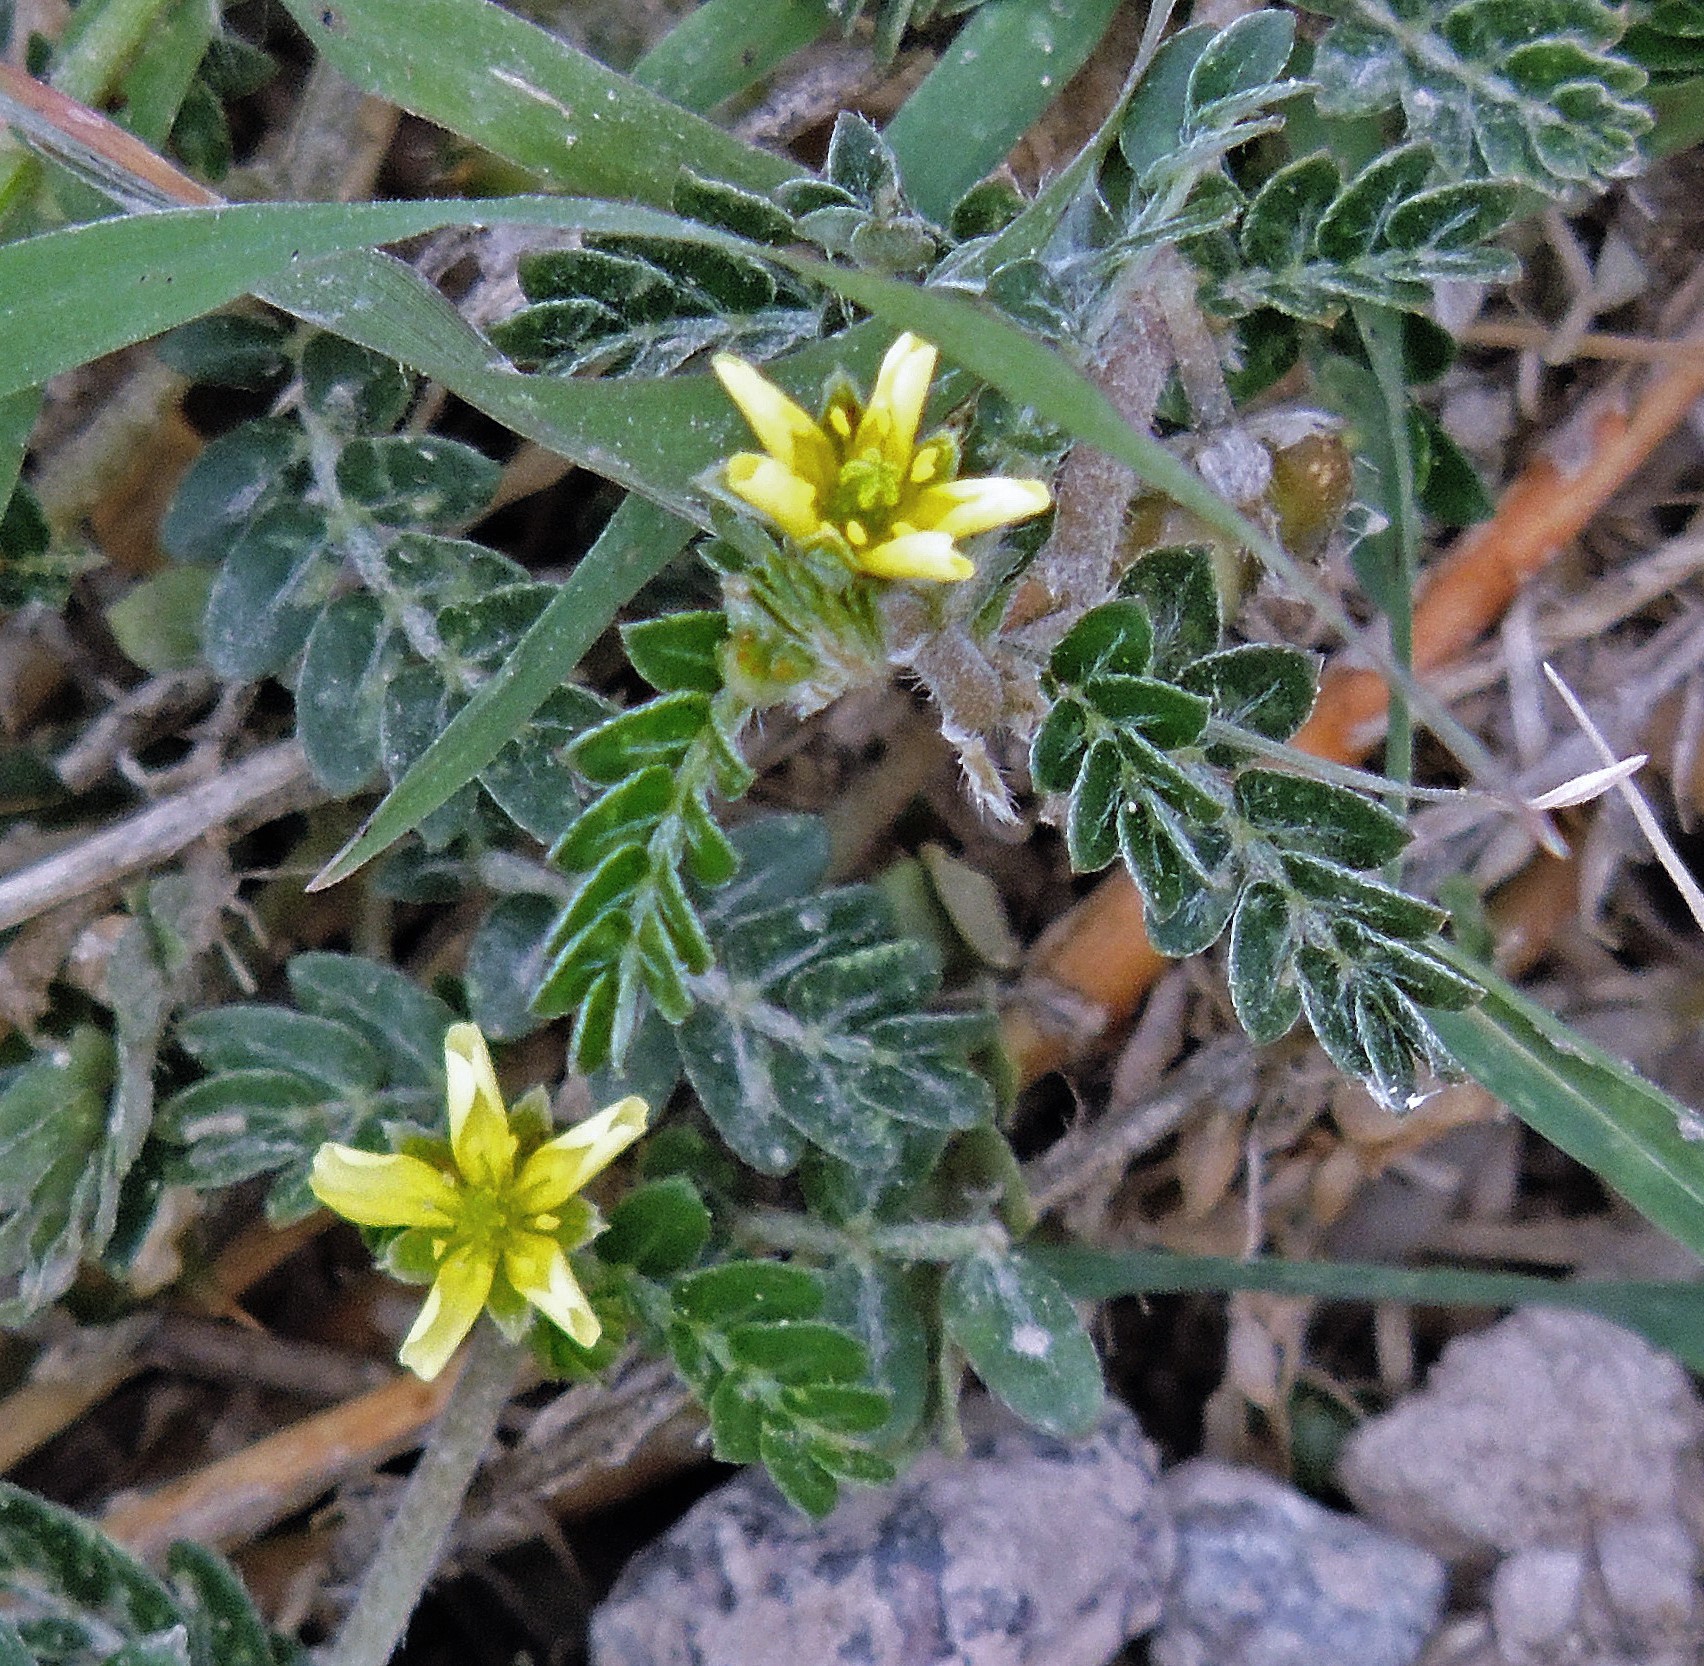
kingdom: Plantae
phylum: Tracheophyta
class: Magnoliopsida
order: Zygophyllales
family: Zygophyllaceae
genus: Tribulus
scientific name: Tribulus terrestris
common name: Puncturevine
